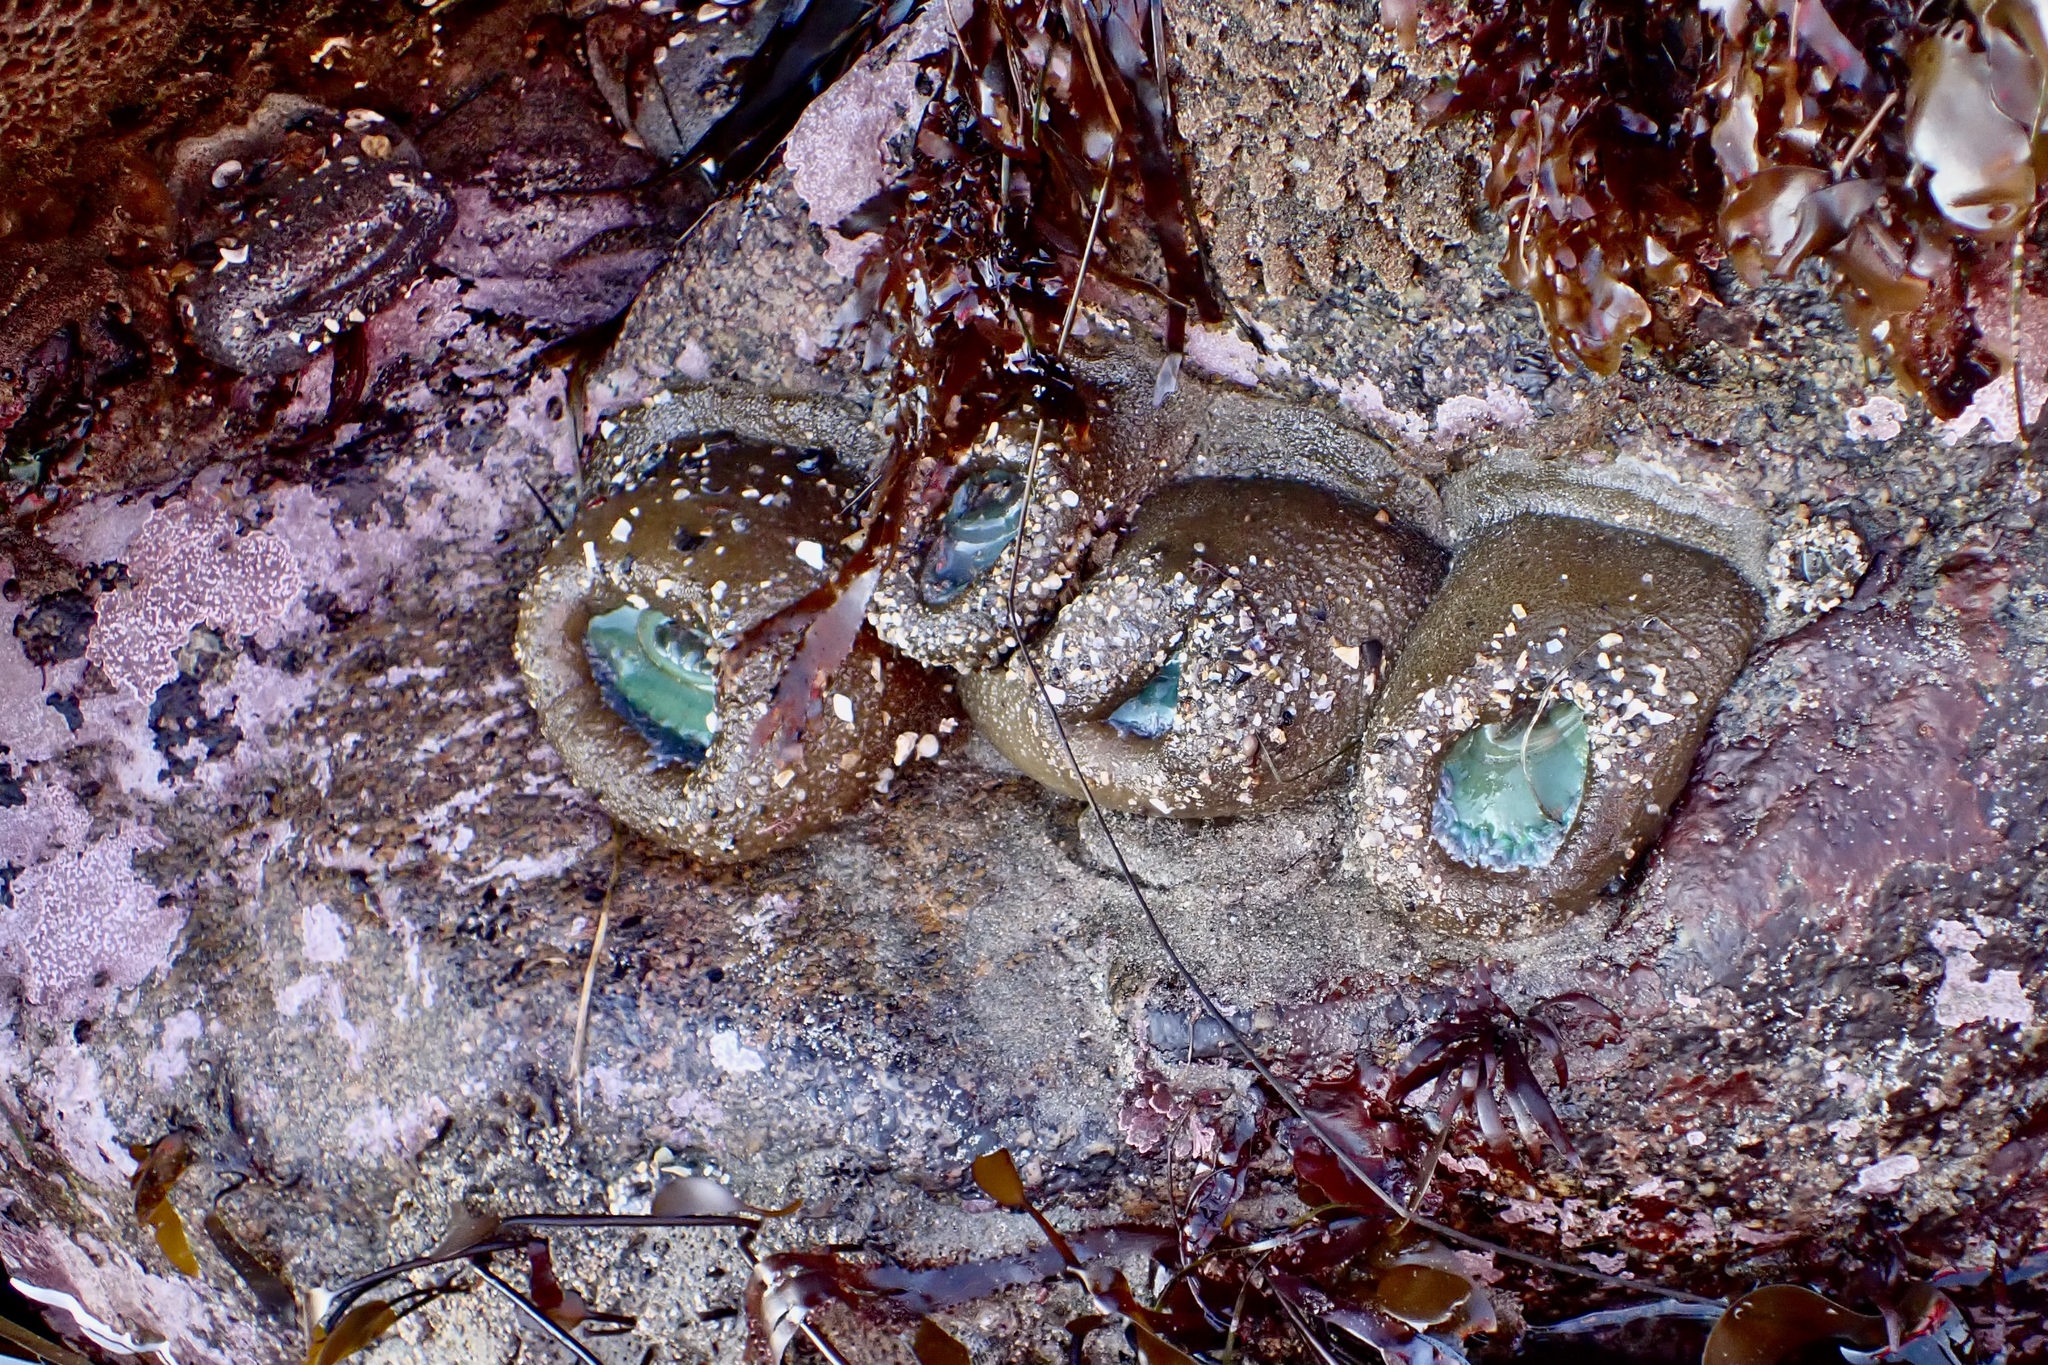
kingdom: Animalia
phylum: Cnidaria
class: Anthozoa
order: Actiniaria
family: Actiniidae
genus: Anthopleura
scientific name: Anthopleura xanthogrammica
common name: Giant green anemone
